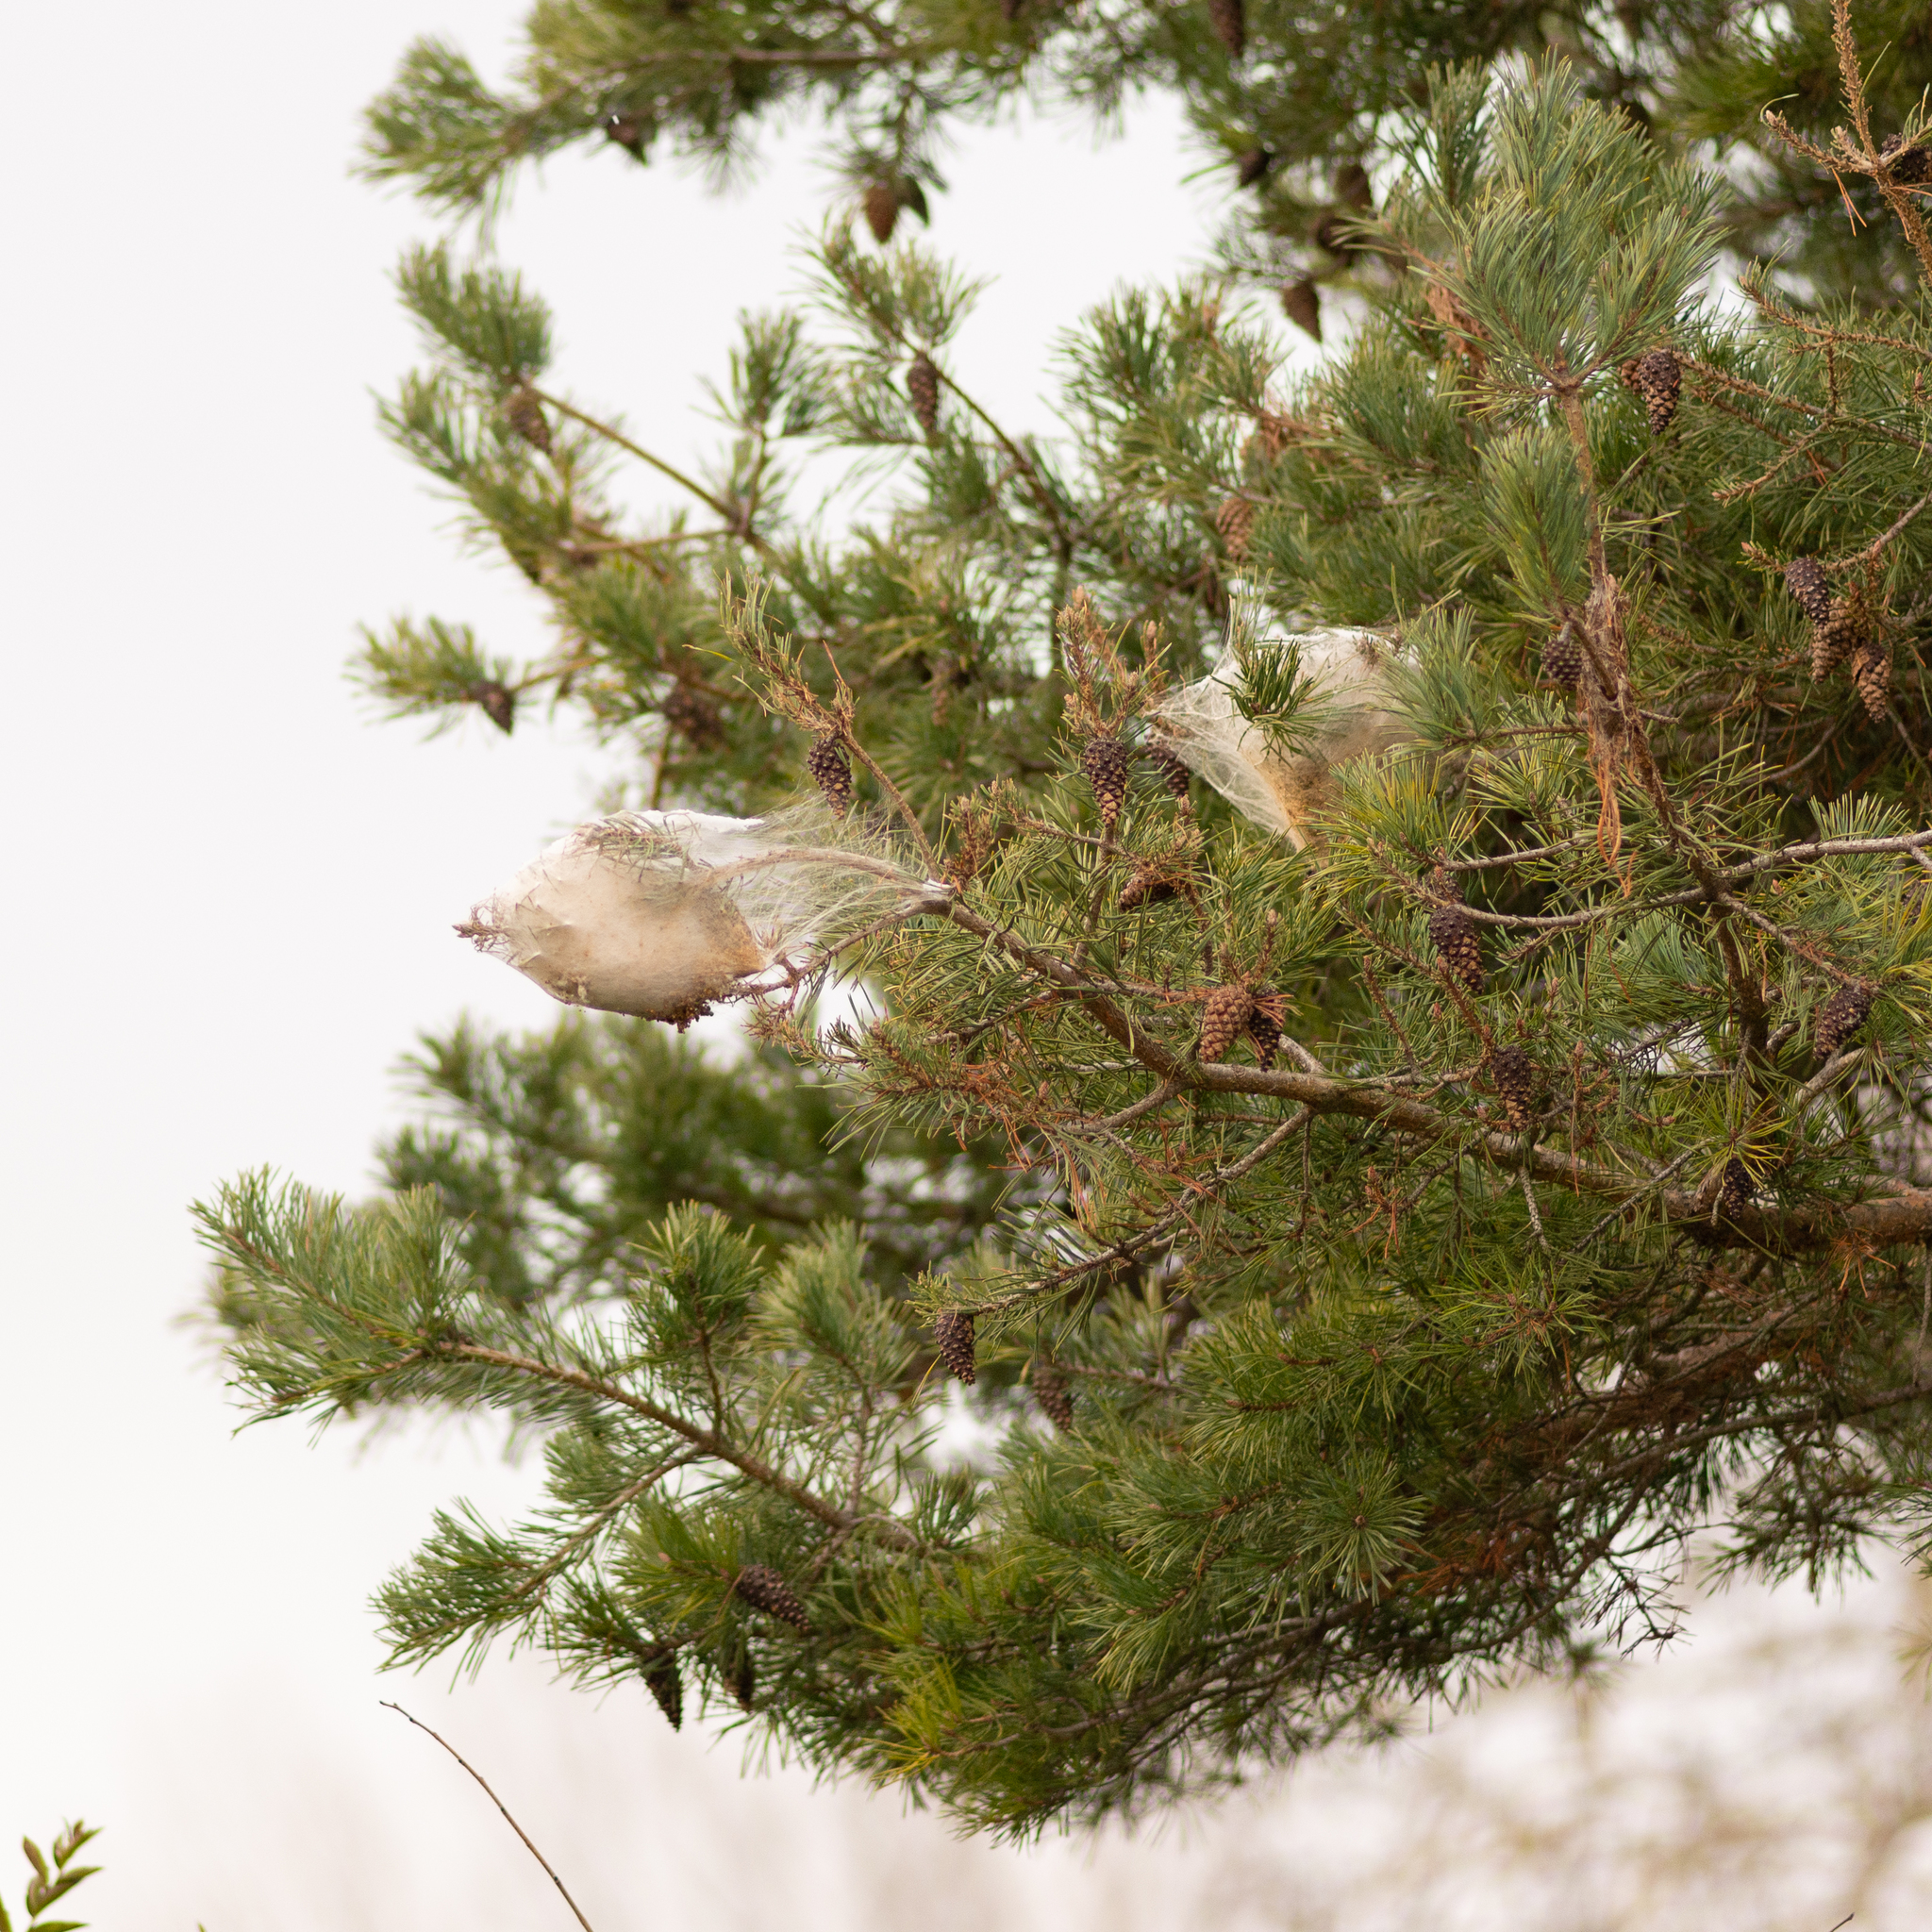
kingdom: Animalia
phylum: Arthropoda
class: Insecta
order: Lepidoptera
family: Notodontidae
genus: Thaumetopoea
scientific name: Thaumetopoea pityocampa
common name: Pine processionary
